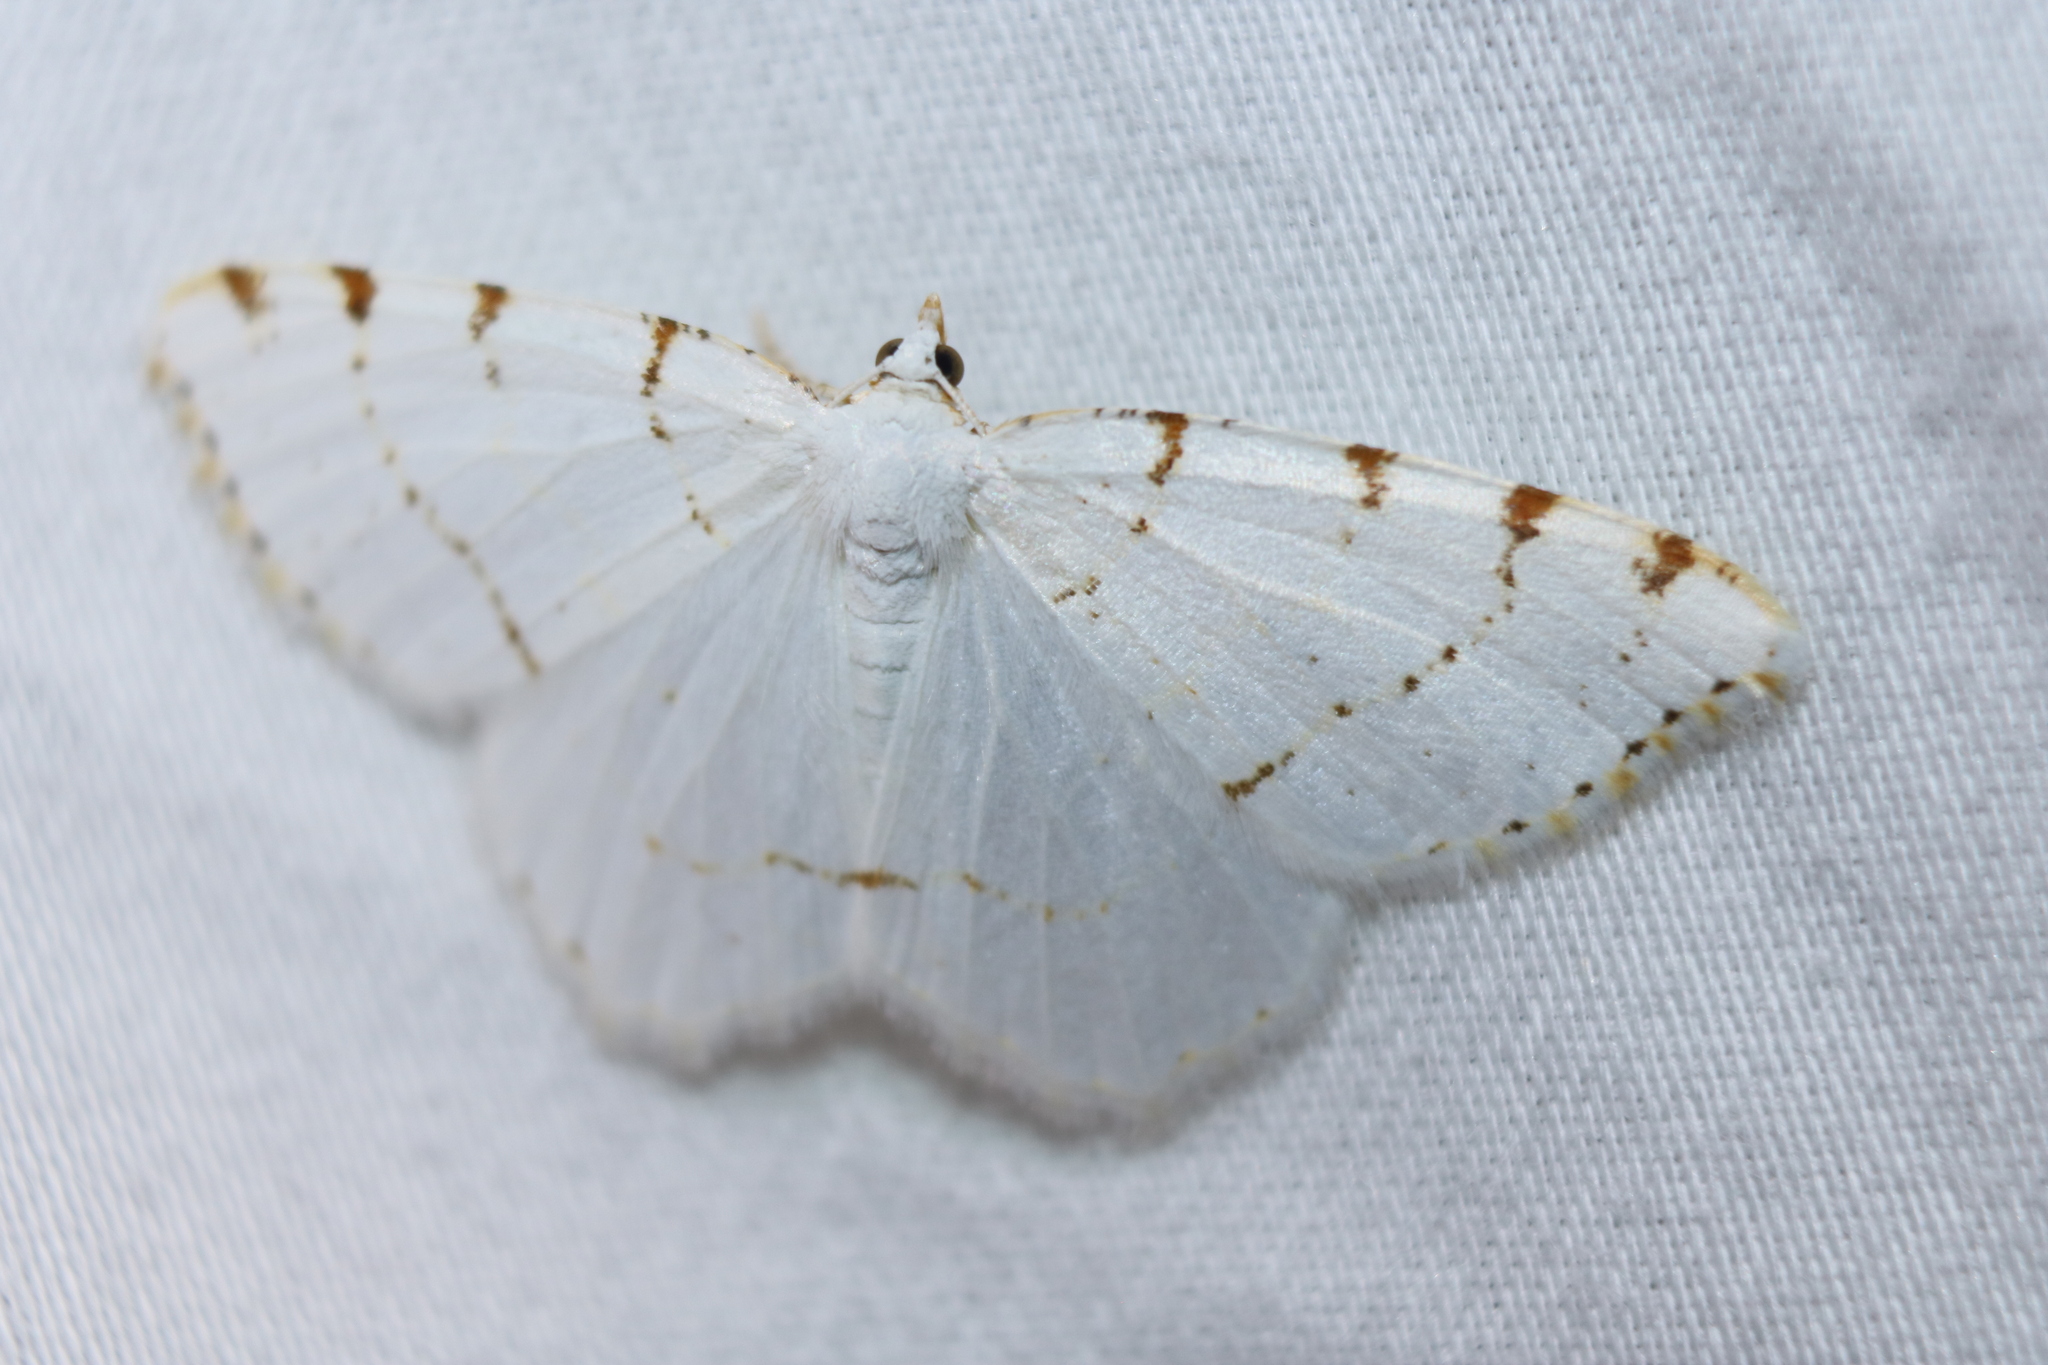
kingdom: Animalia
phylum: Arthropoda
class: Insecta
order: Lepidoptera
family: Geometridae
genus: Macaria
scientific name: Macaria pustularia
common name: Lesser maple spanworm moth
